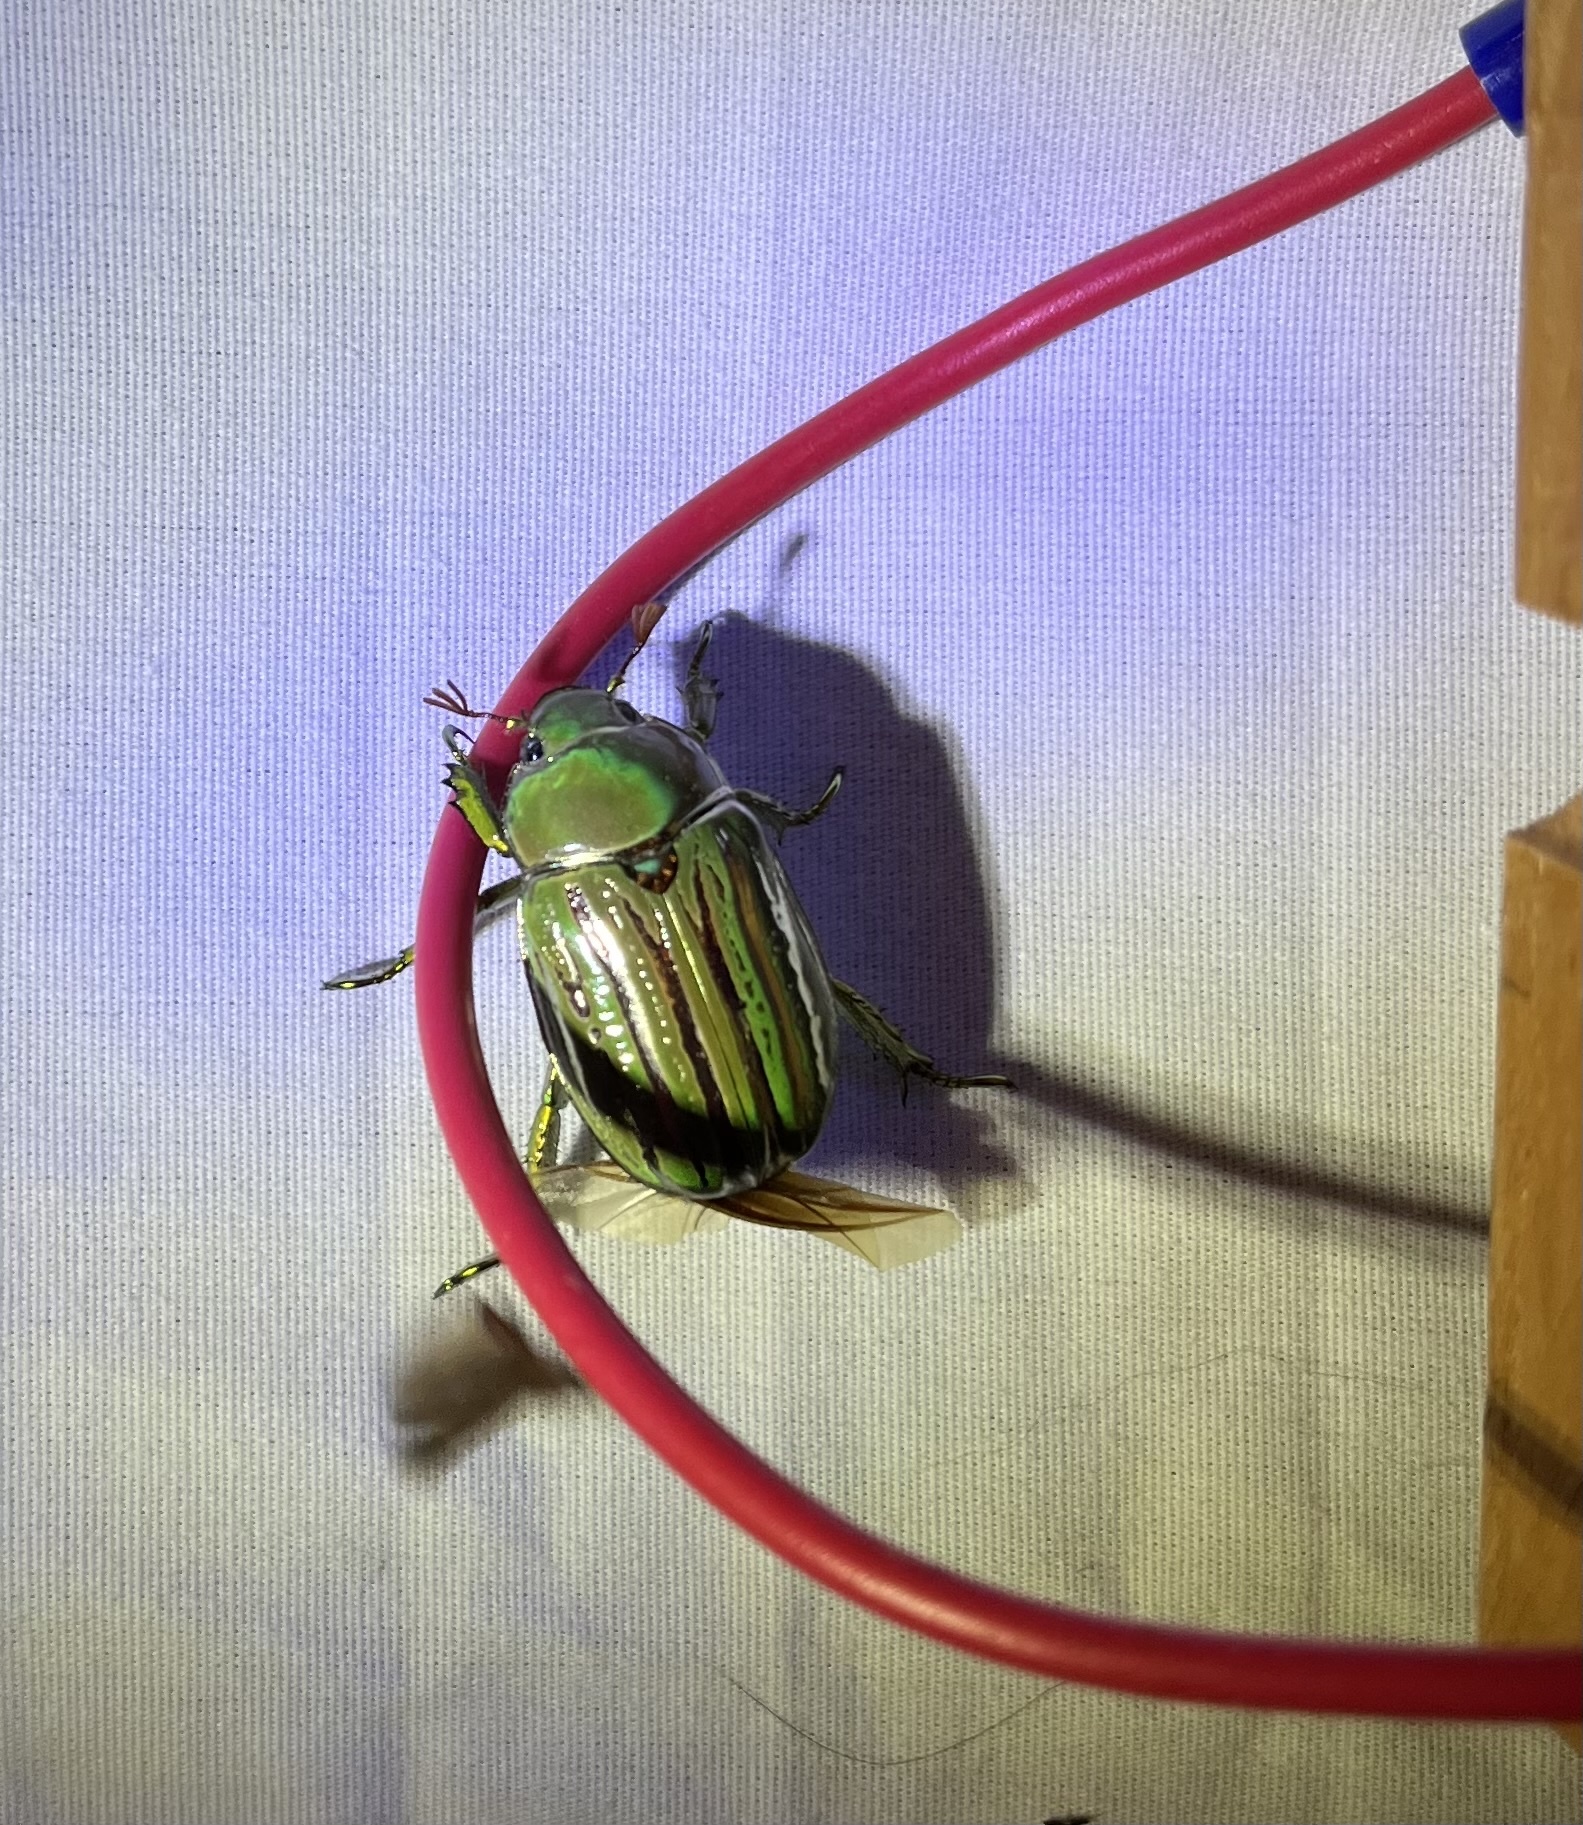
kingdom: Animalia
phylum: Arthropoda
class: Insecta
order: Coleoptera
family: Scarabaeidae
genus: Chrysina
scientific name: Chrysina gloriosa
